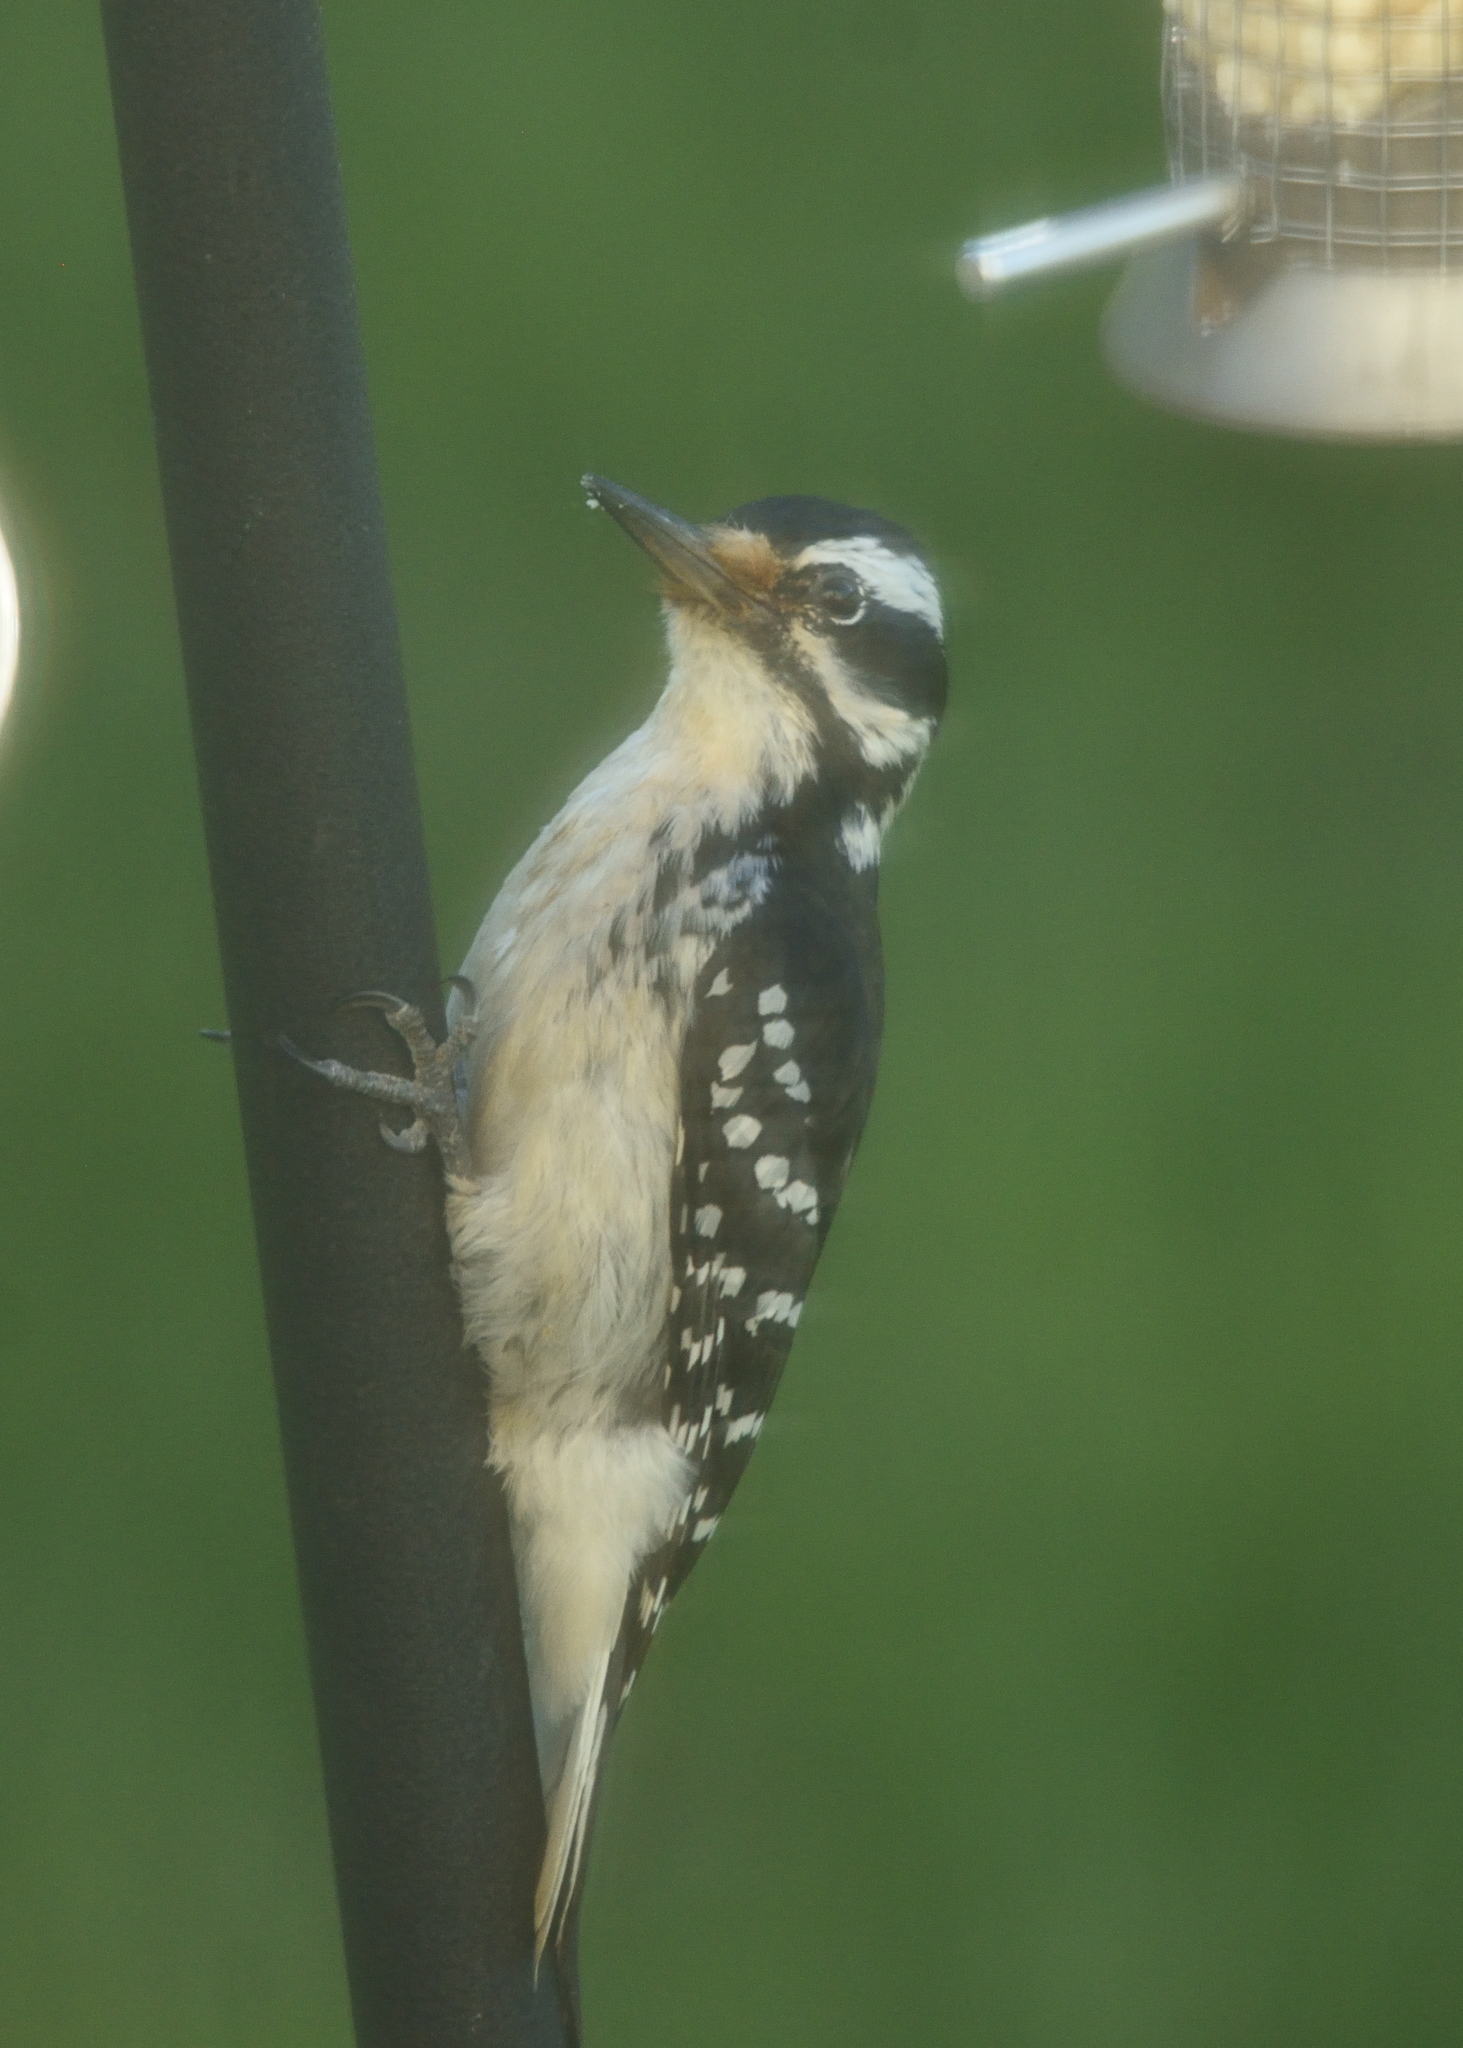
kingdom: Animalia
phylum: Chordata
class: Aves
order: Piciformes
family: Picidae
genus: Leuconotopicus
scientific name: Leuconotopicus villosus
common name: Hairy woodpecker
